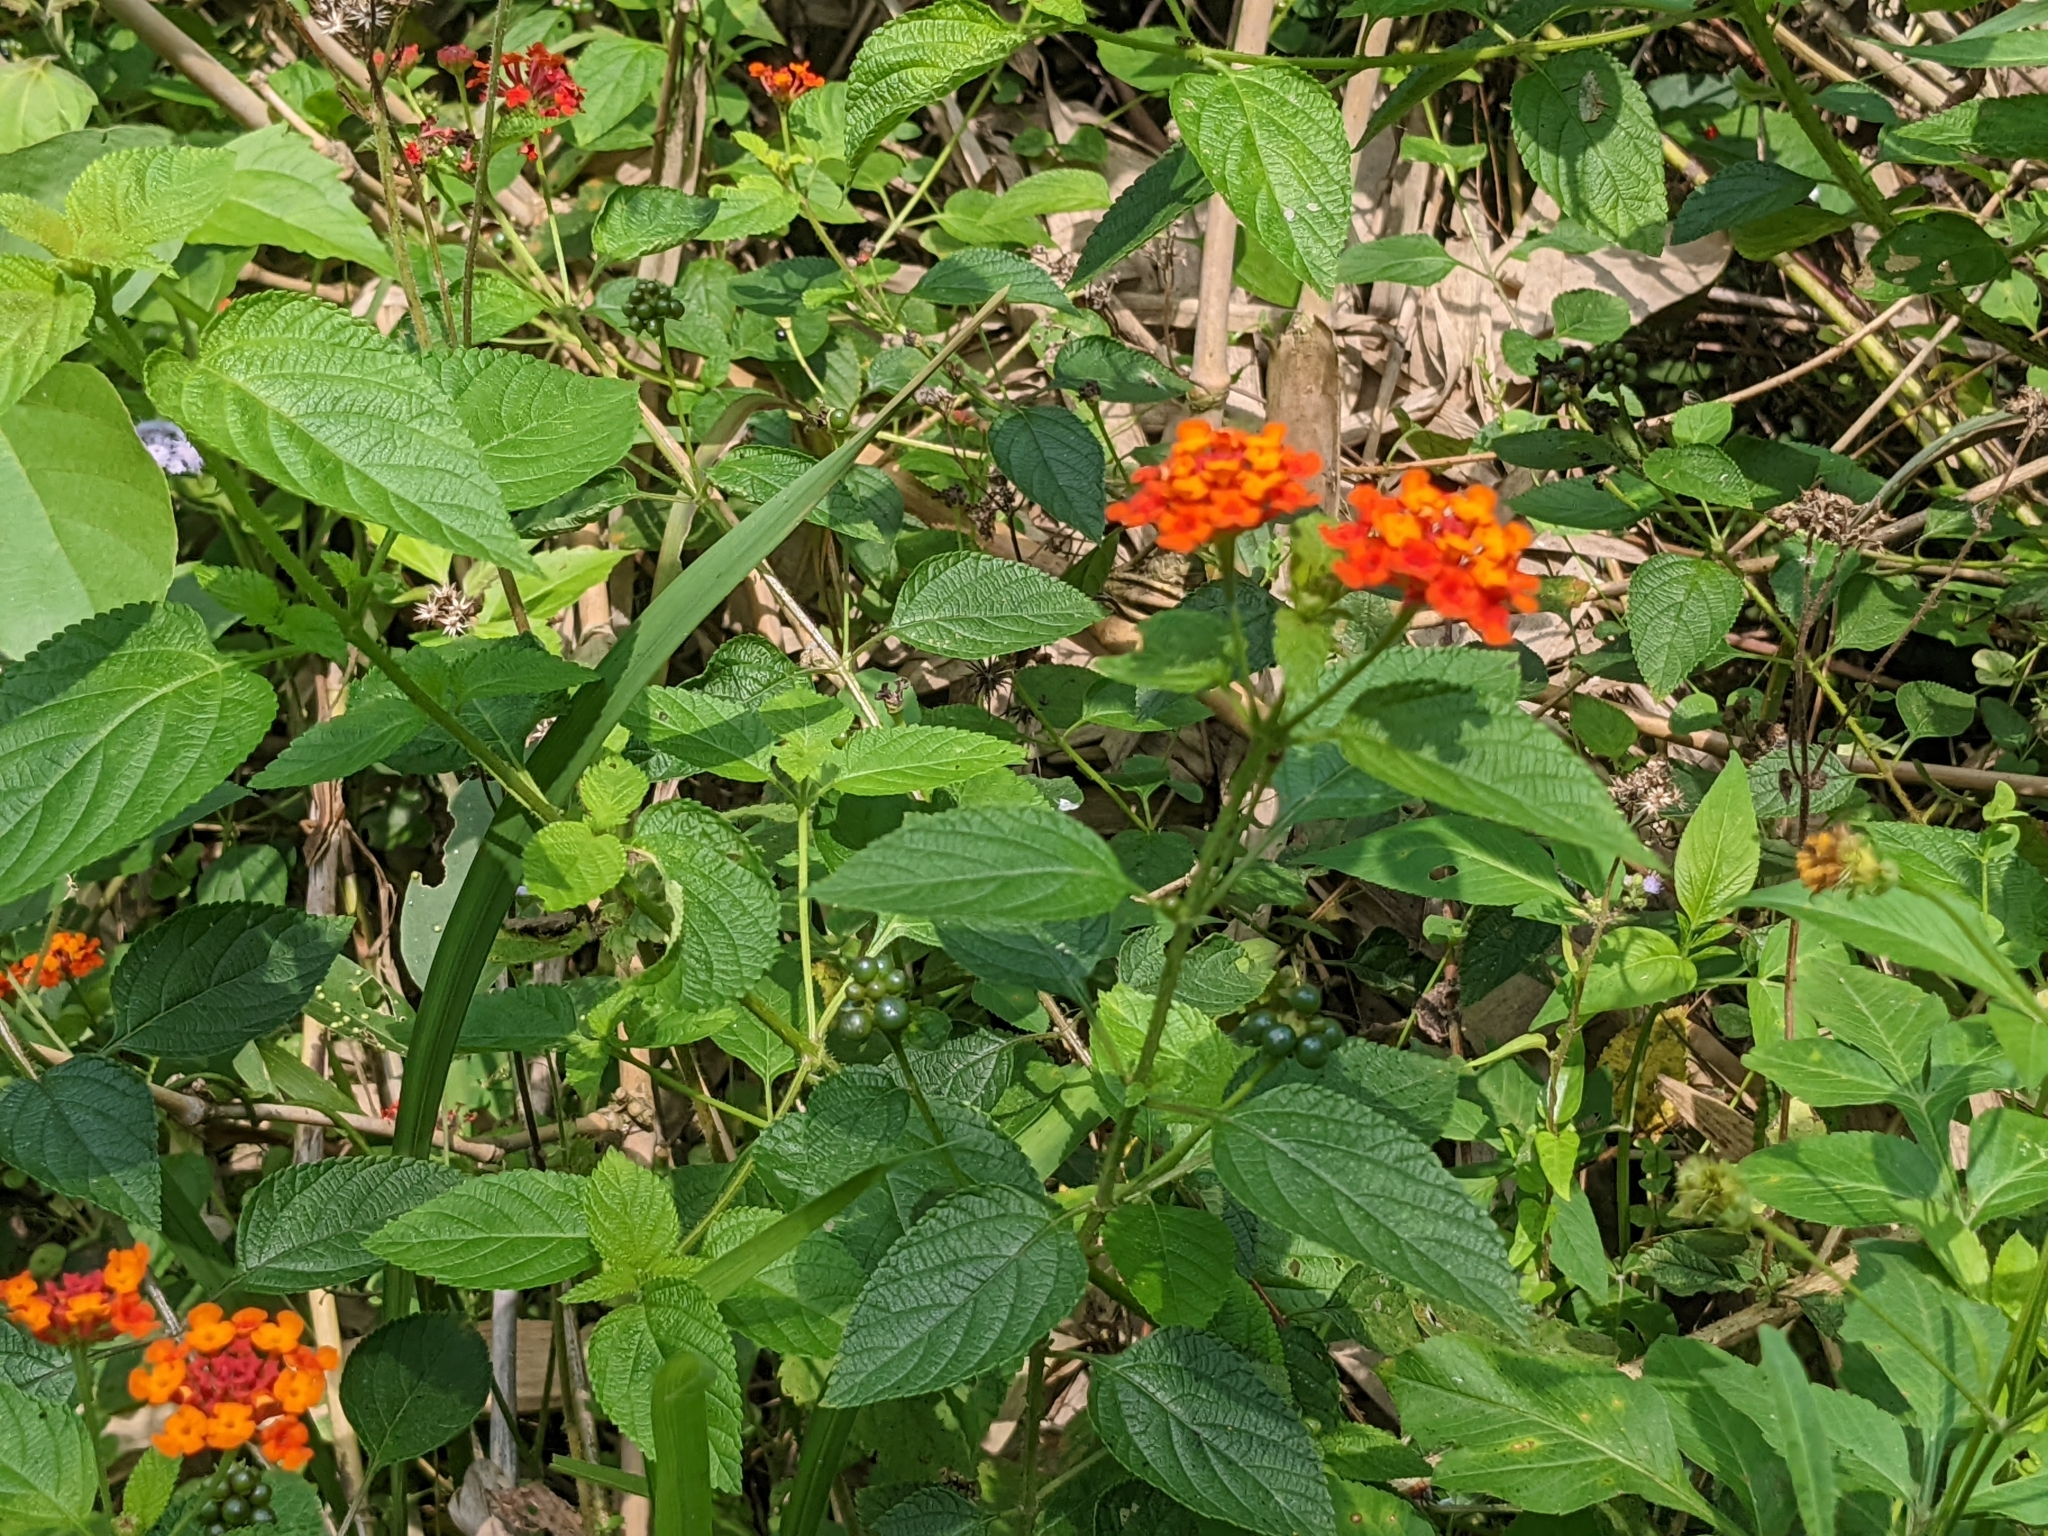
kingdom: Plantae
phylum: Tracheophyta
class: Magnoliopsida
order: Lamiales
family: Verbenaceae
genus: Lantana
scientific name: Lantana camara
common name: Lantana
